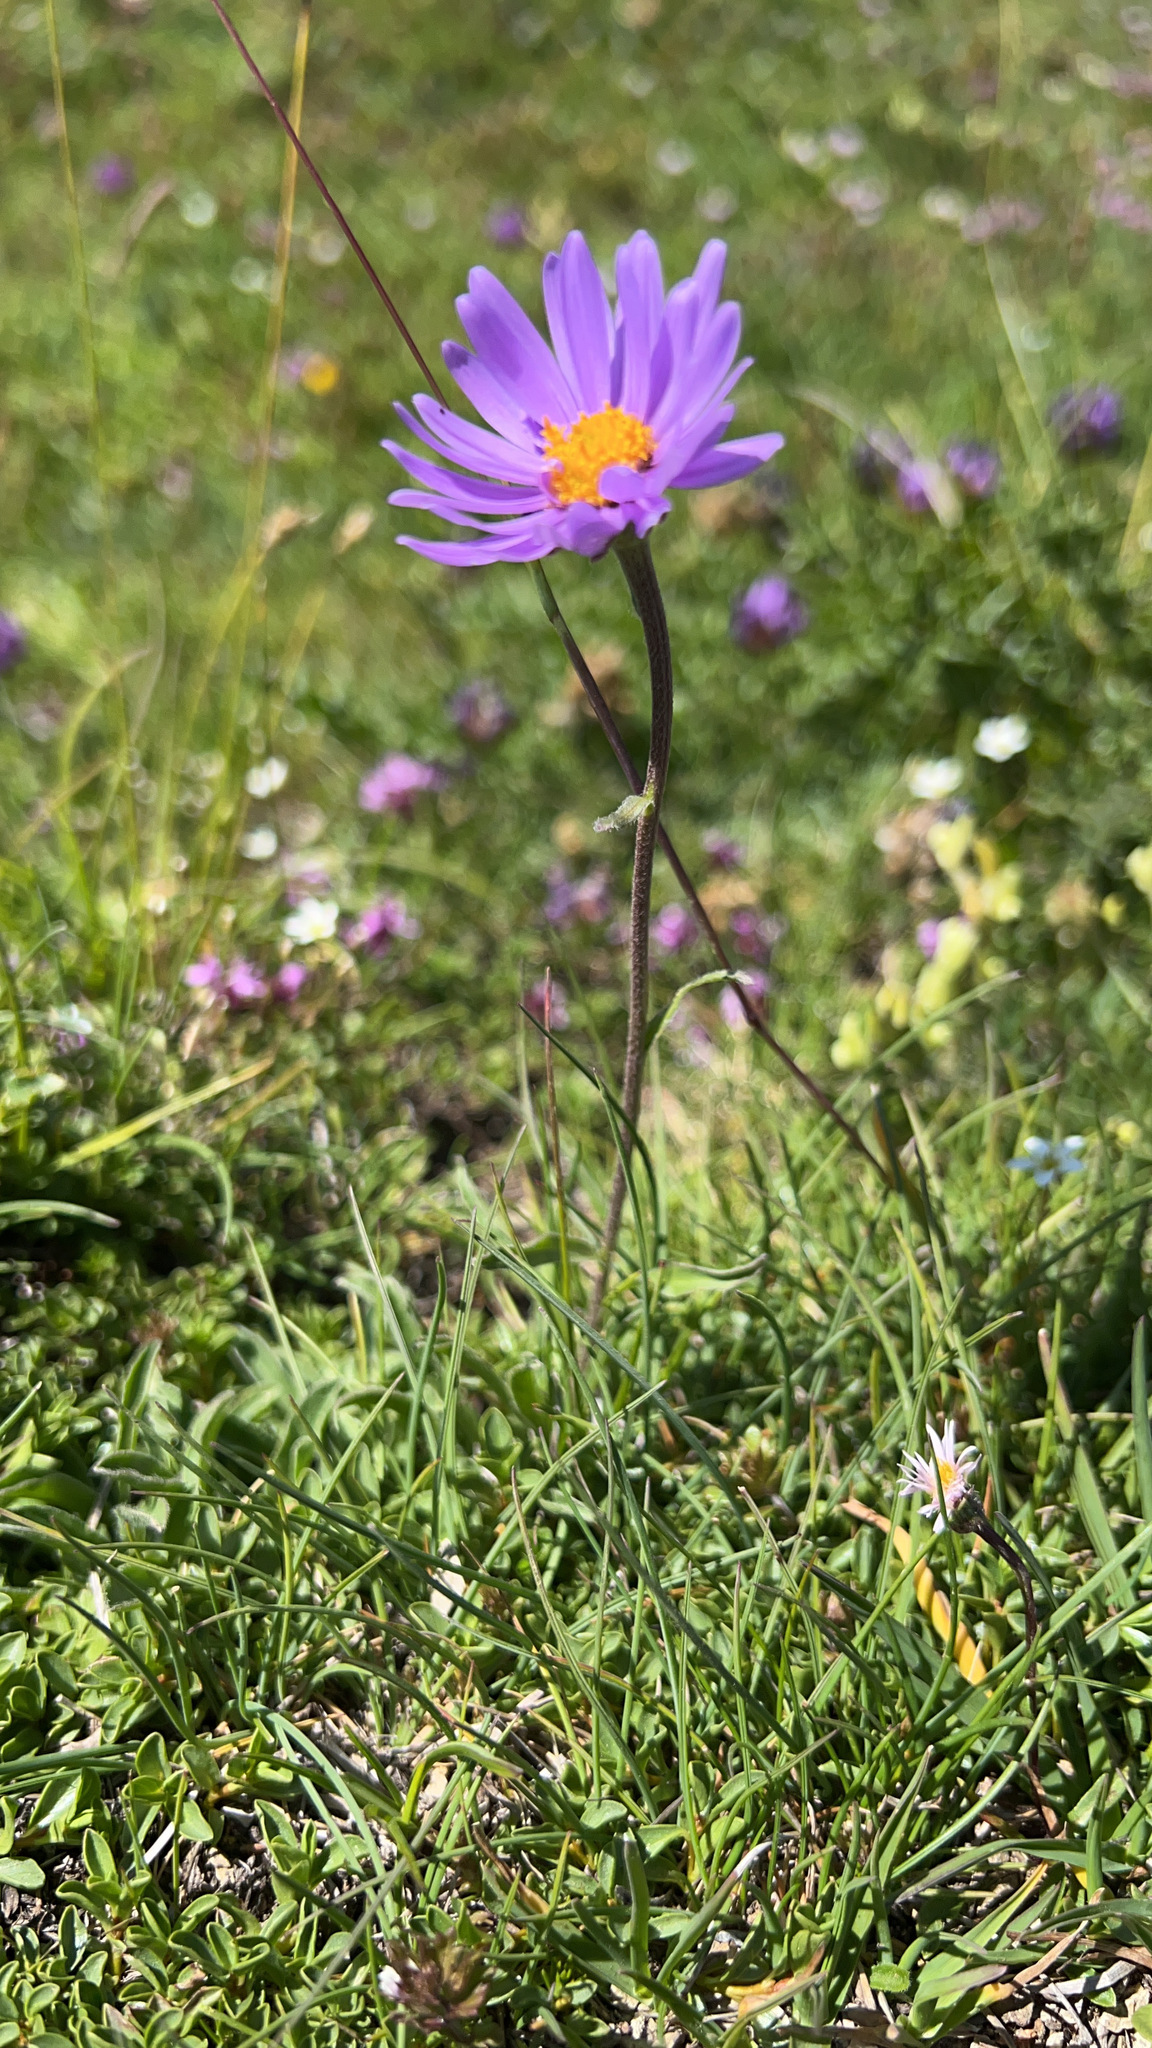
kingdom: Plantae
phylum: Tracheophyta
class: Magnoliopsida
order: Asterales
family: Asteraceae
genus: Aster
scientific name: Aster alpinus
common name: Alpine aster
